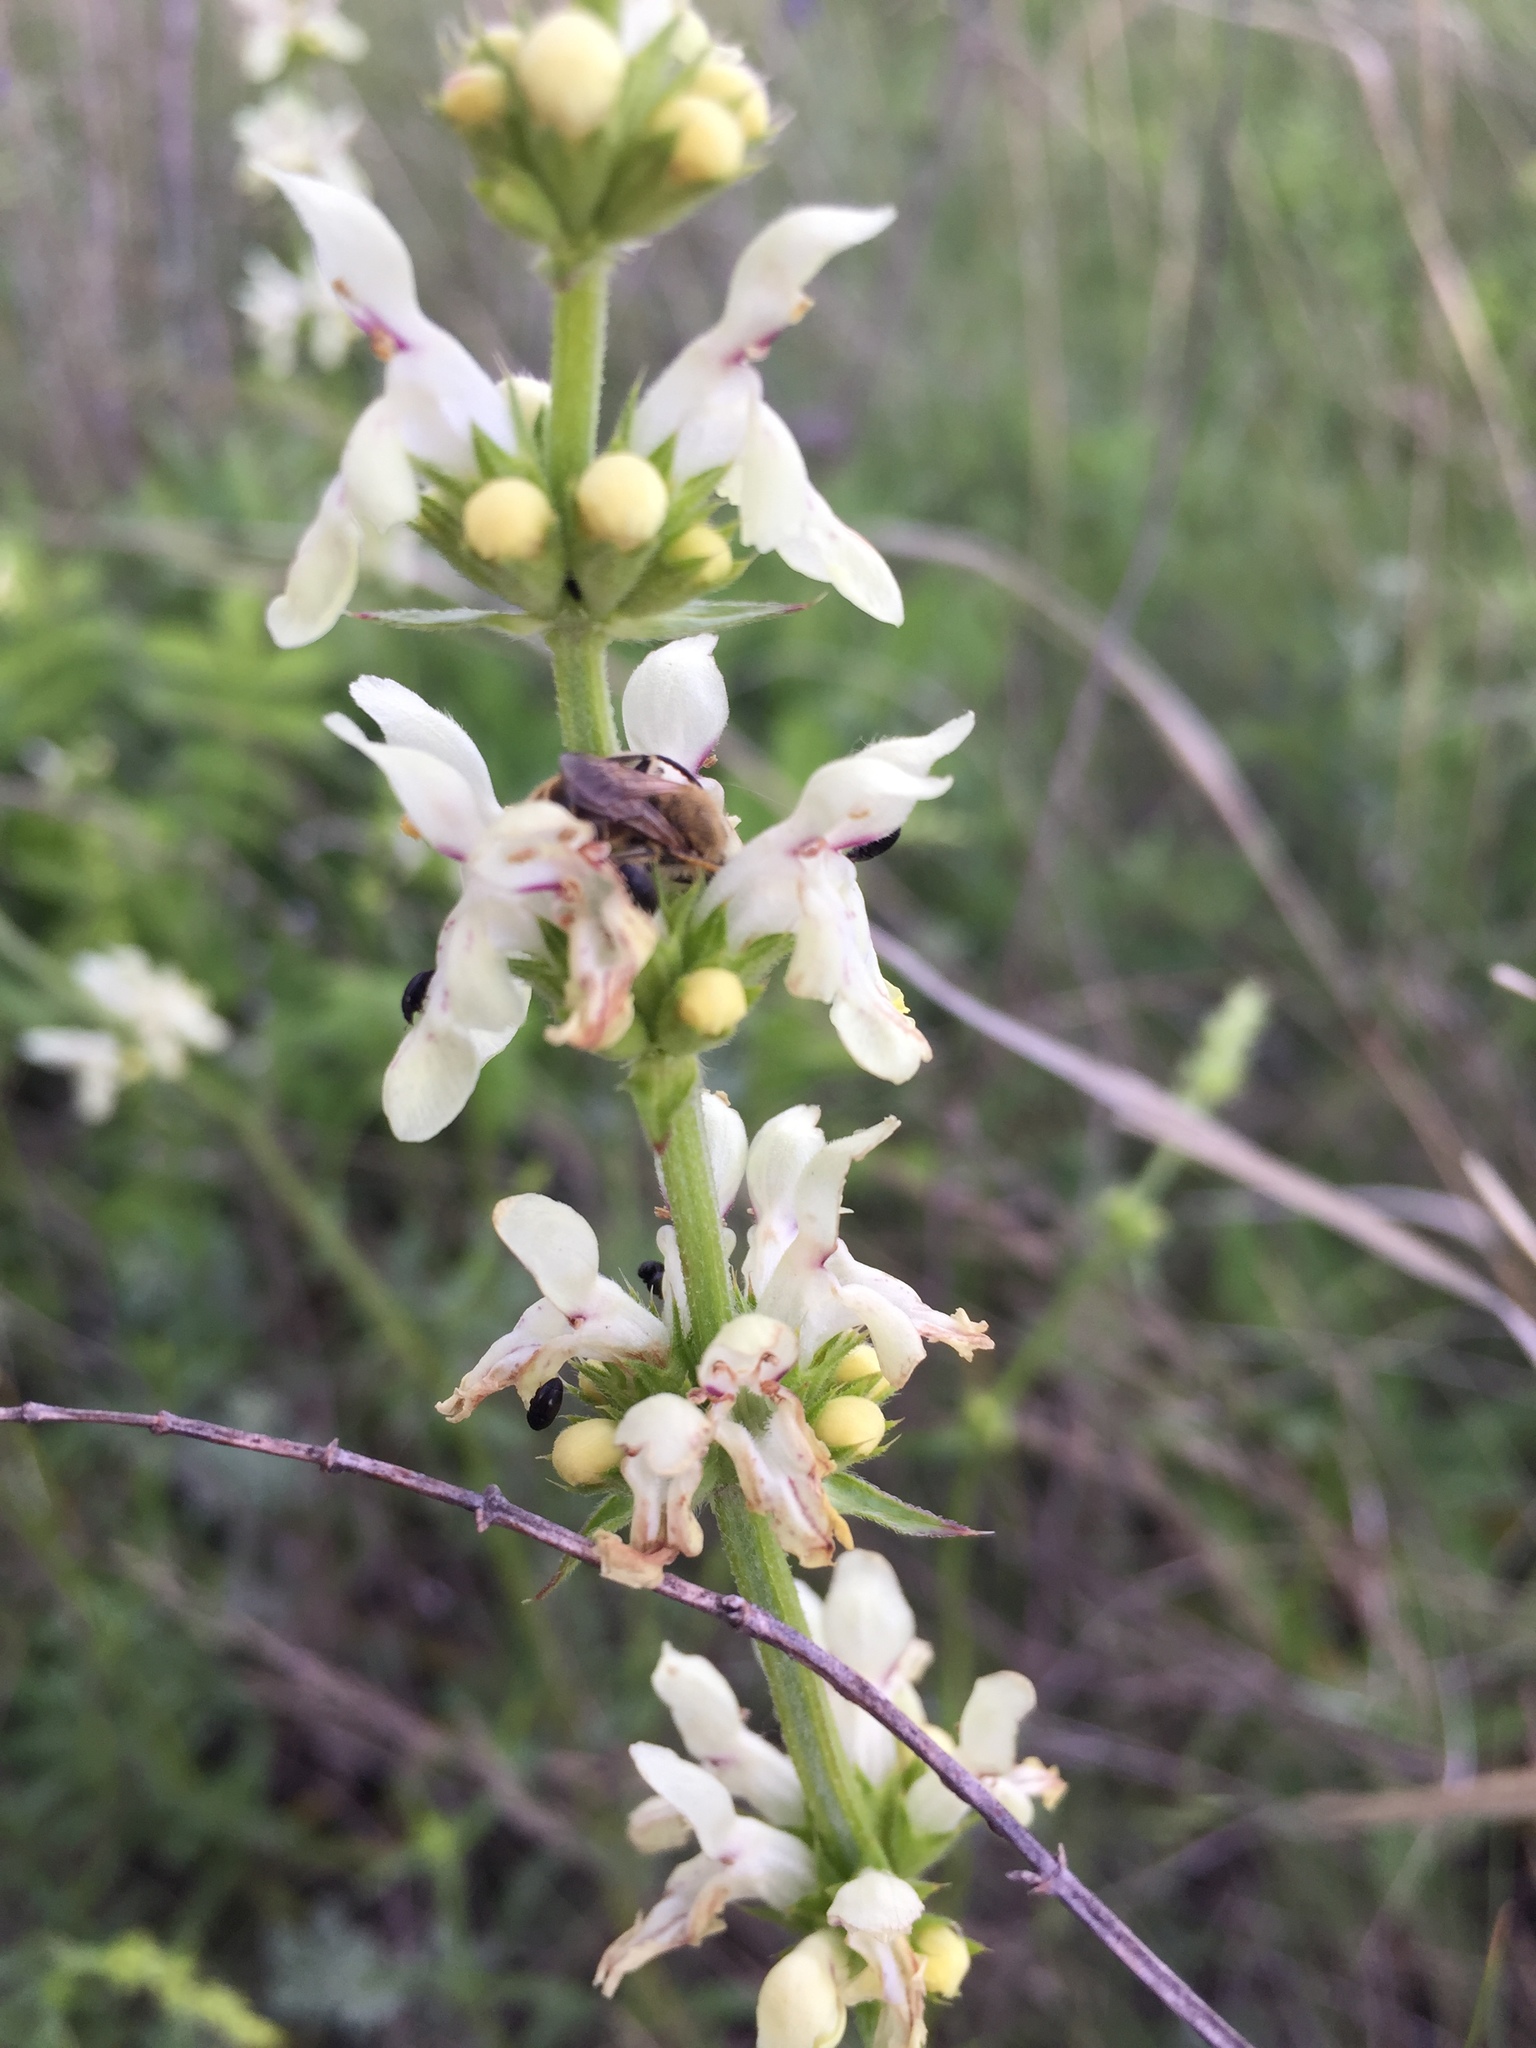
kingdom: Plantae
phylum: Tracheophyta
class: Magnoliopsida
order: Lamiales
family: Lamiaceae
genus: Stachys
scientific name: Stachys recta
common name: Perennial yellow-woundwort
